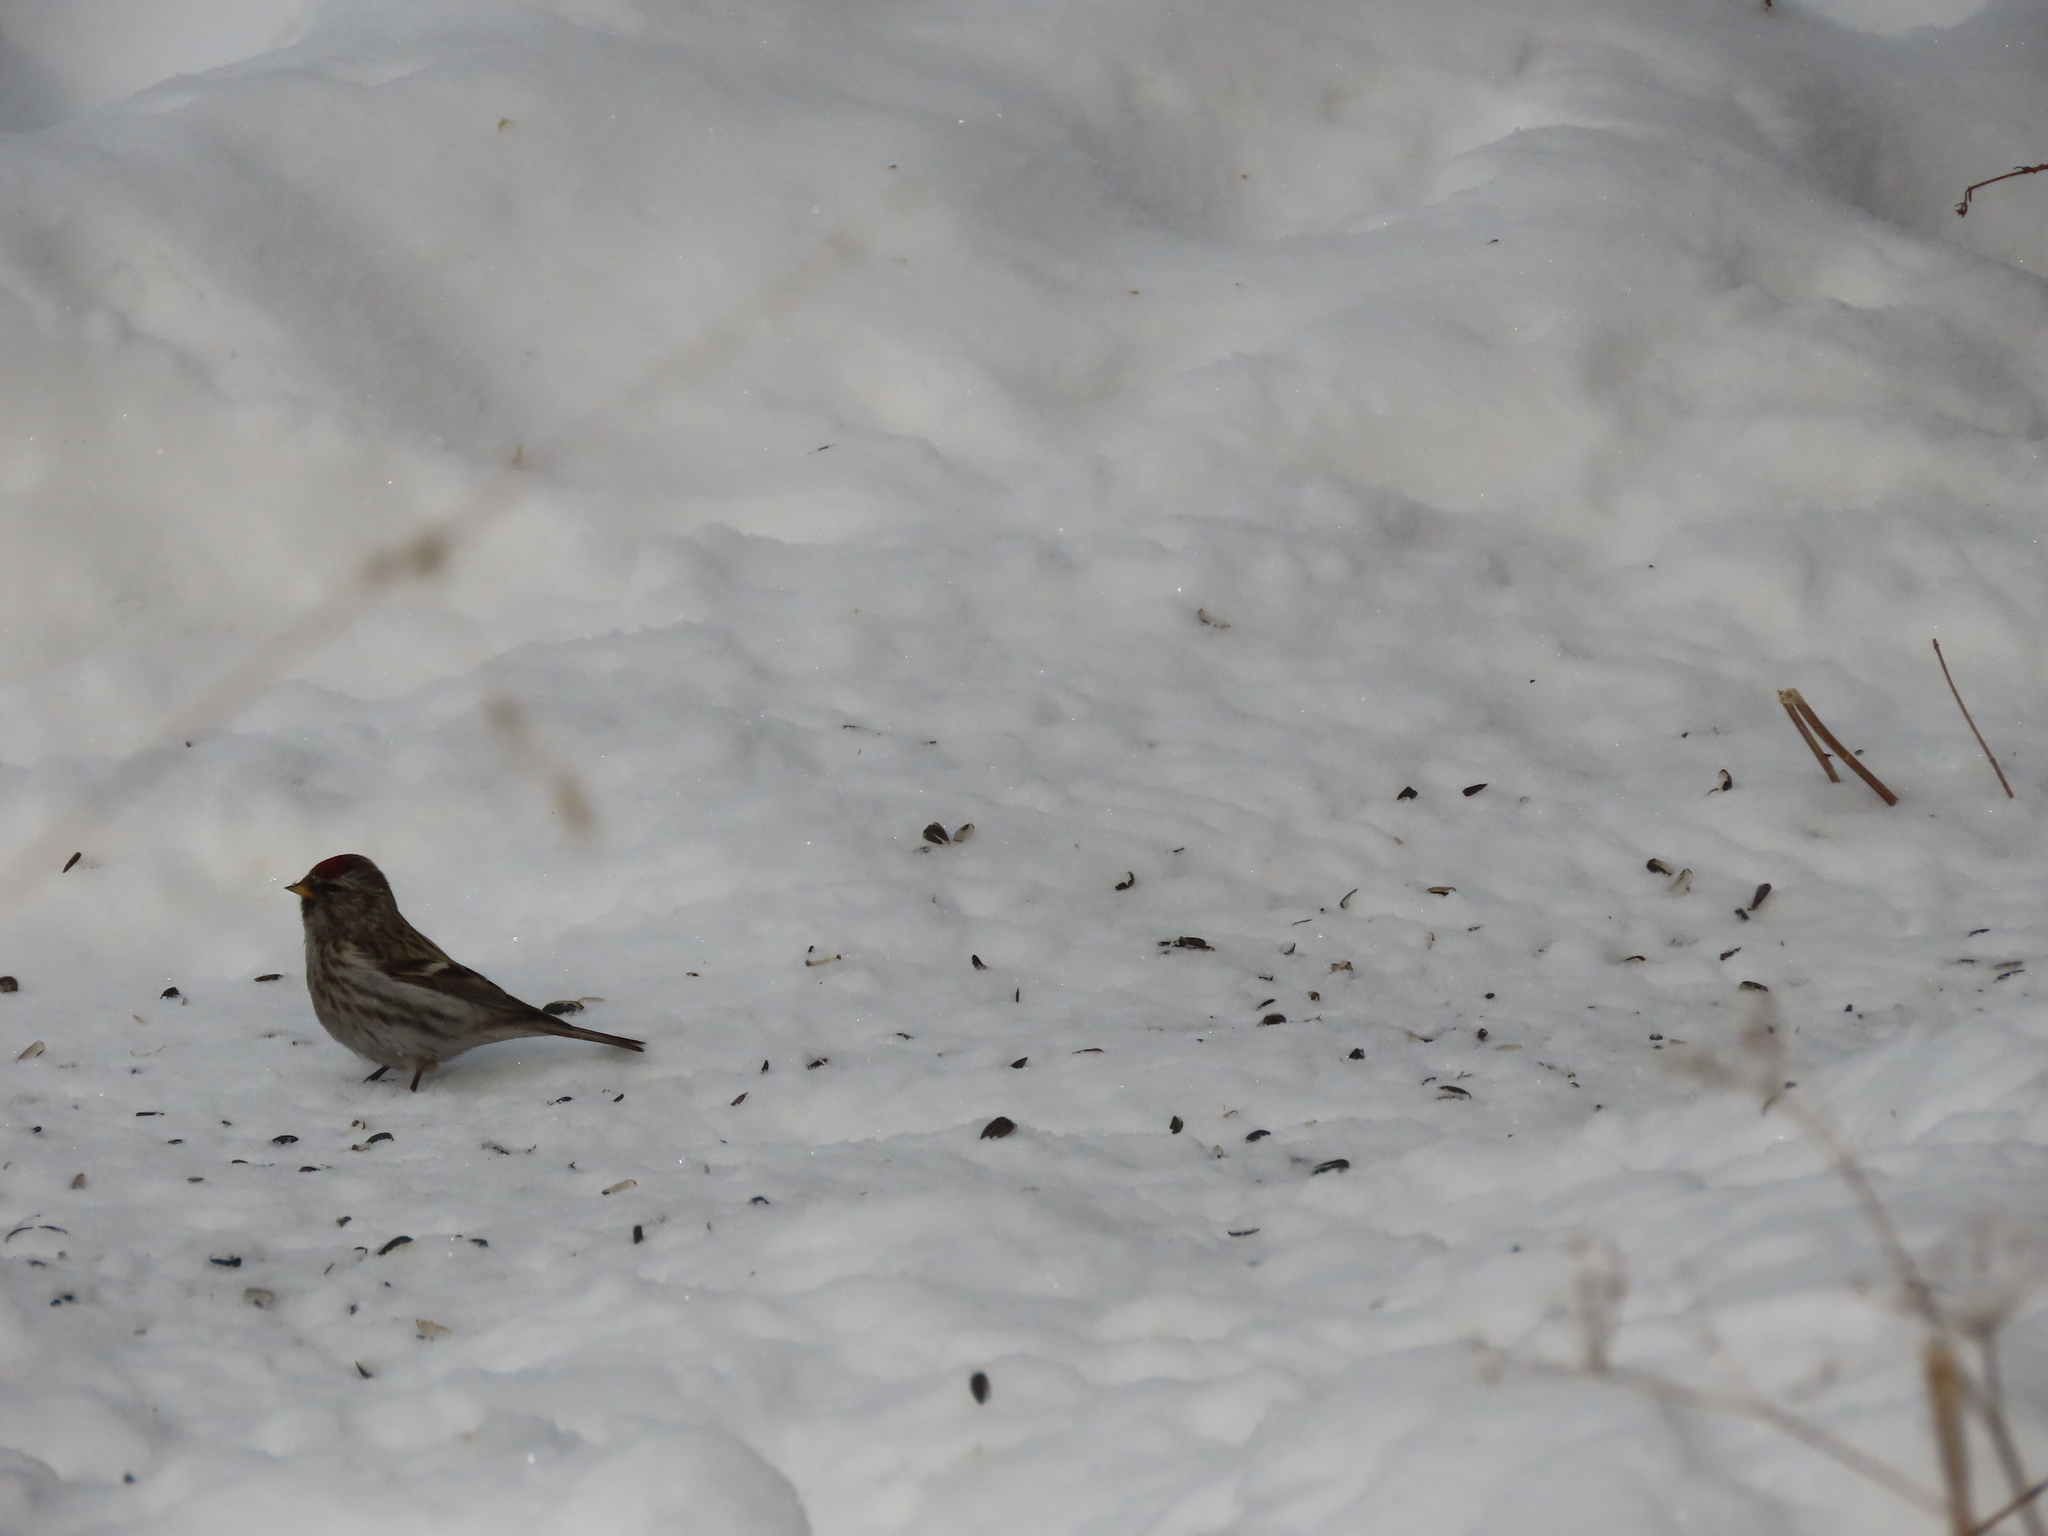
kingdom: Animalia
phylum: Chordata
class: Aves
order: Passeriformes
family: Fringillidae
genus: Acanthis
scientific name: Acanthis flammea
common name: Common redpoll
